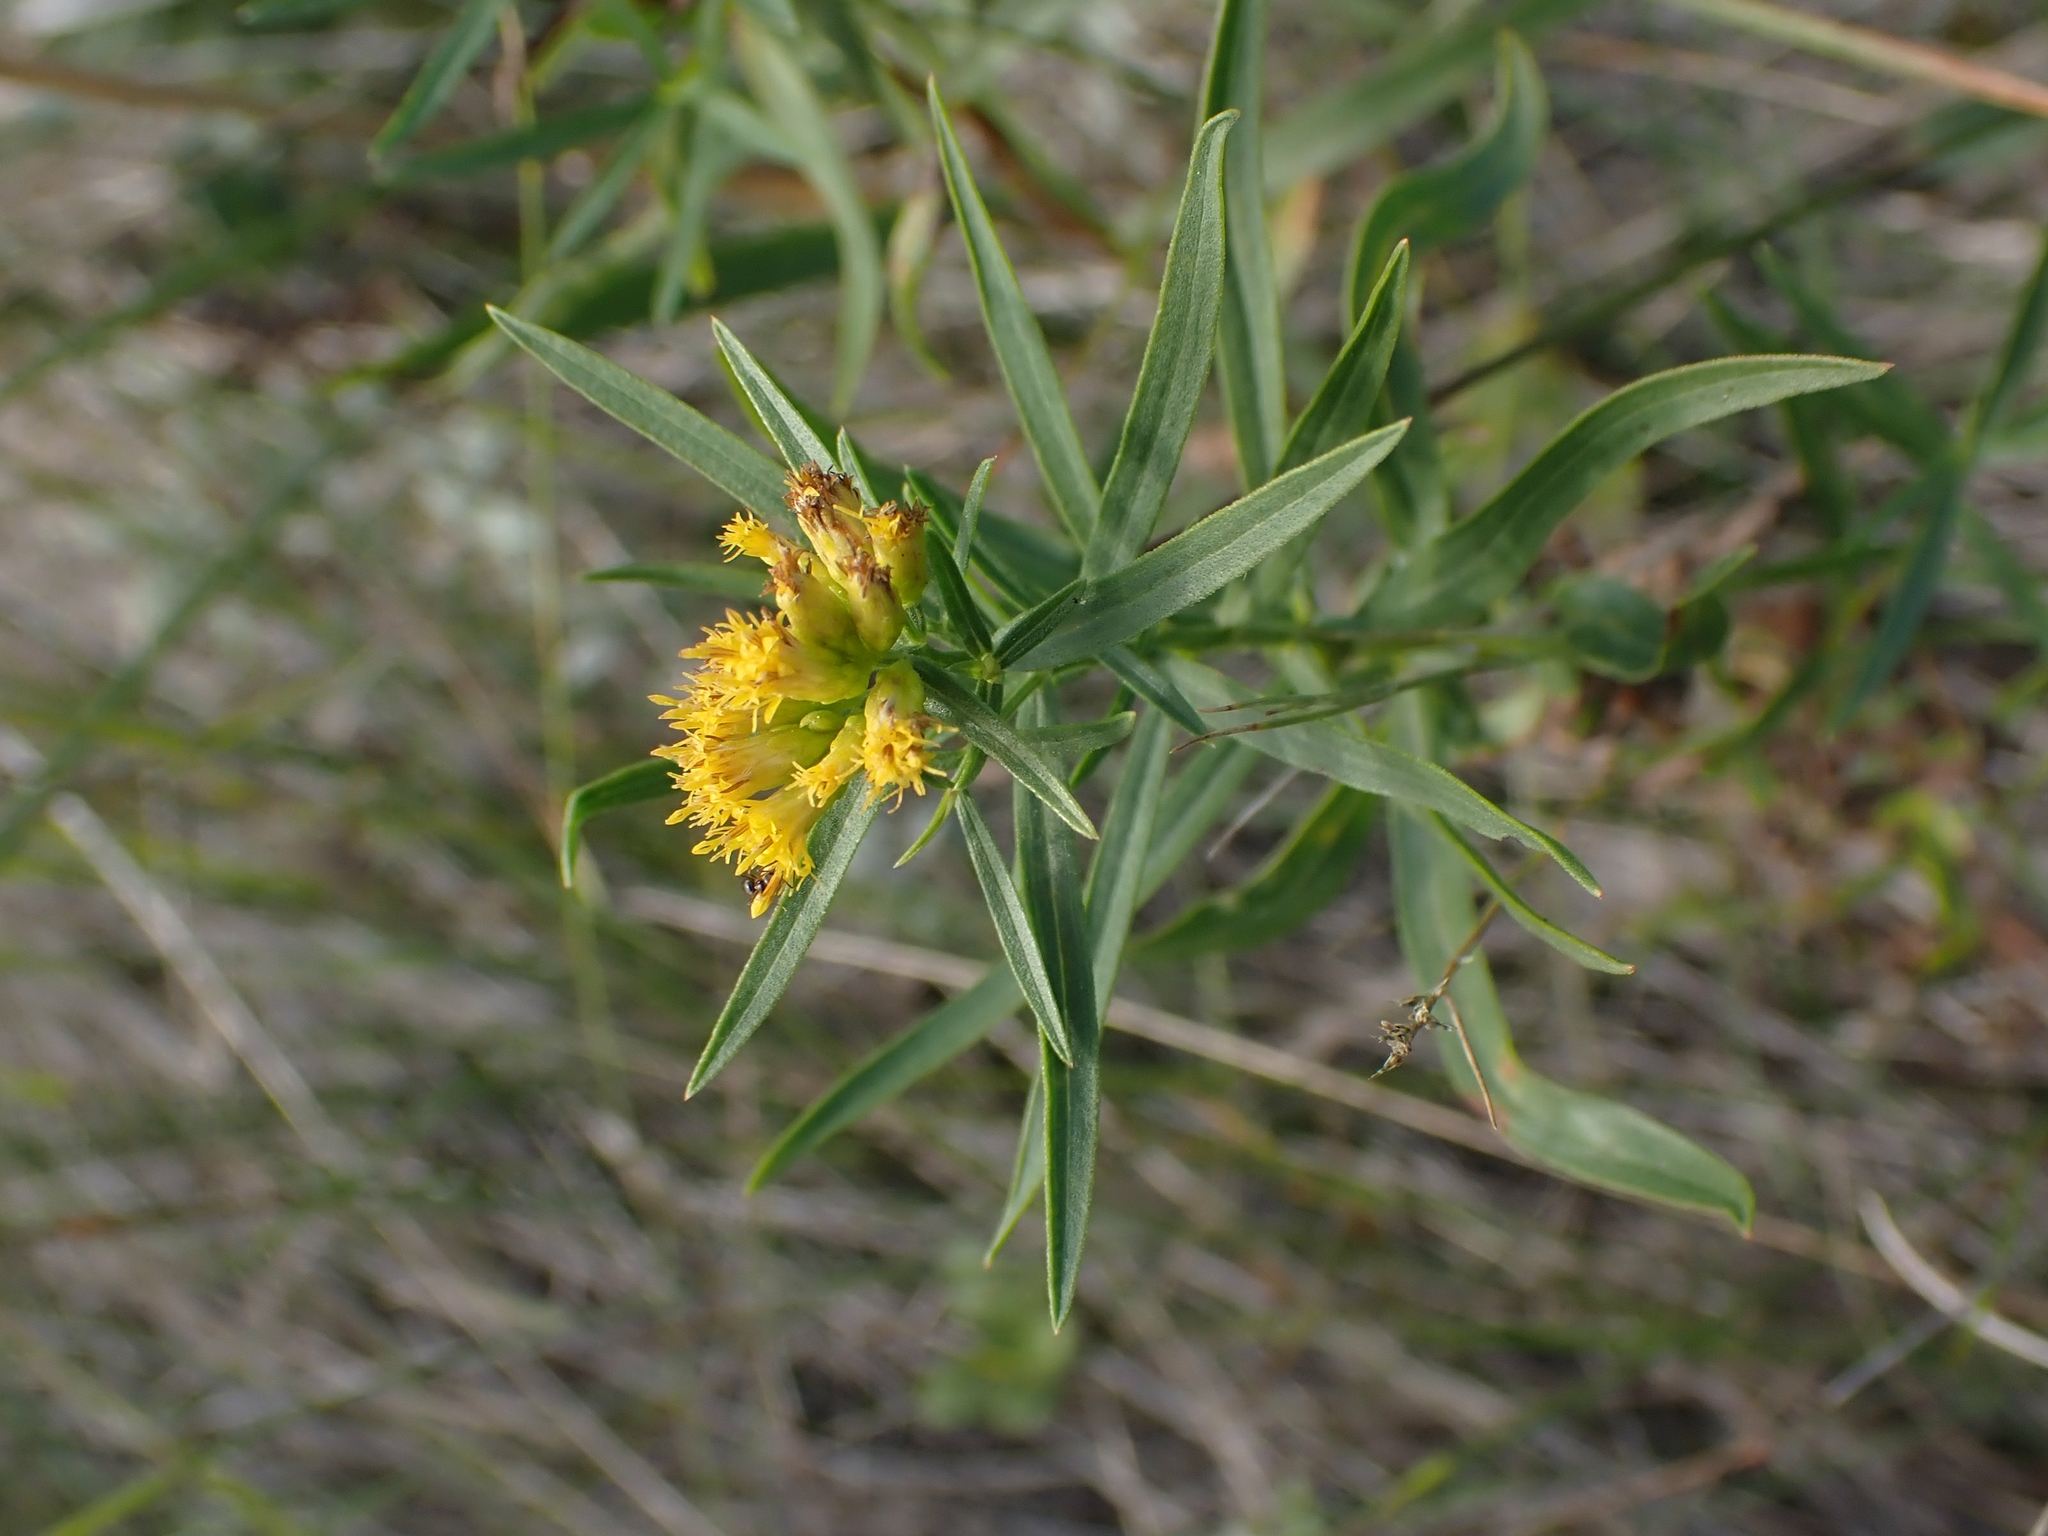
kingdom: Plantae
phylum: Tracheophyta
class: Magnoliopsida
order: Asterales
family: Asteraceae
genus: Euthamia
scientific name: Euthamia graminifolia
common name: Common goldentop
